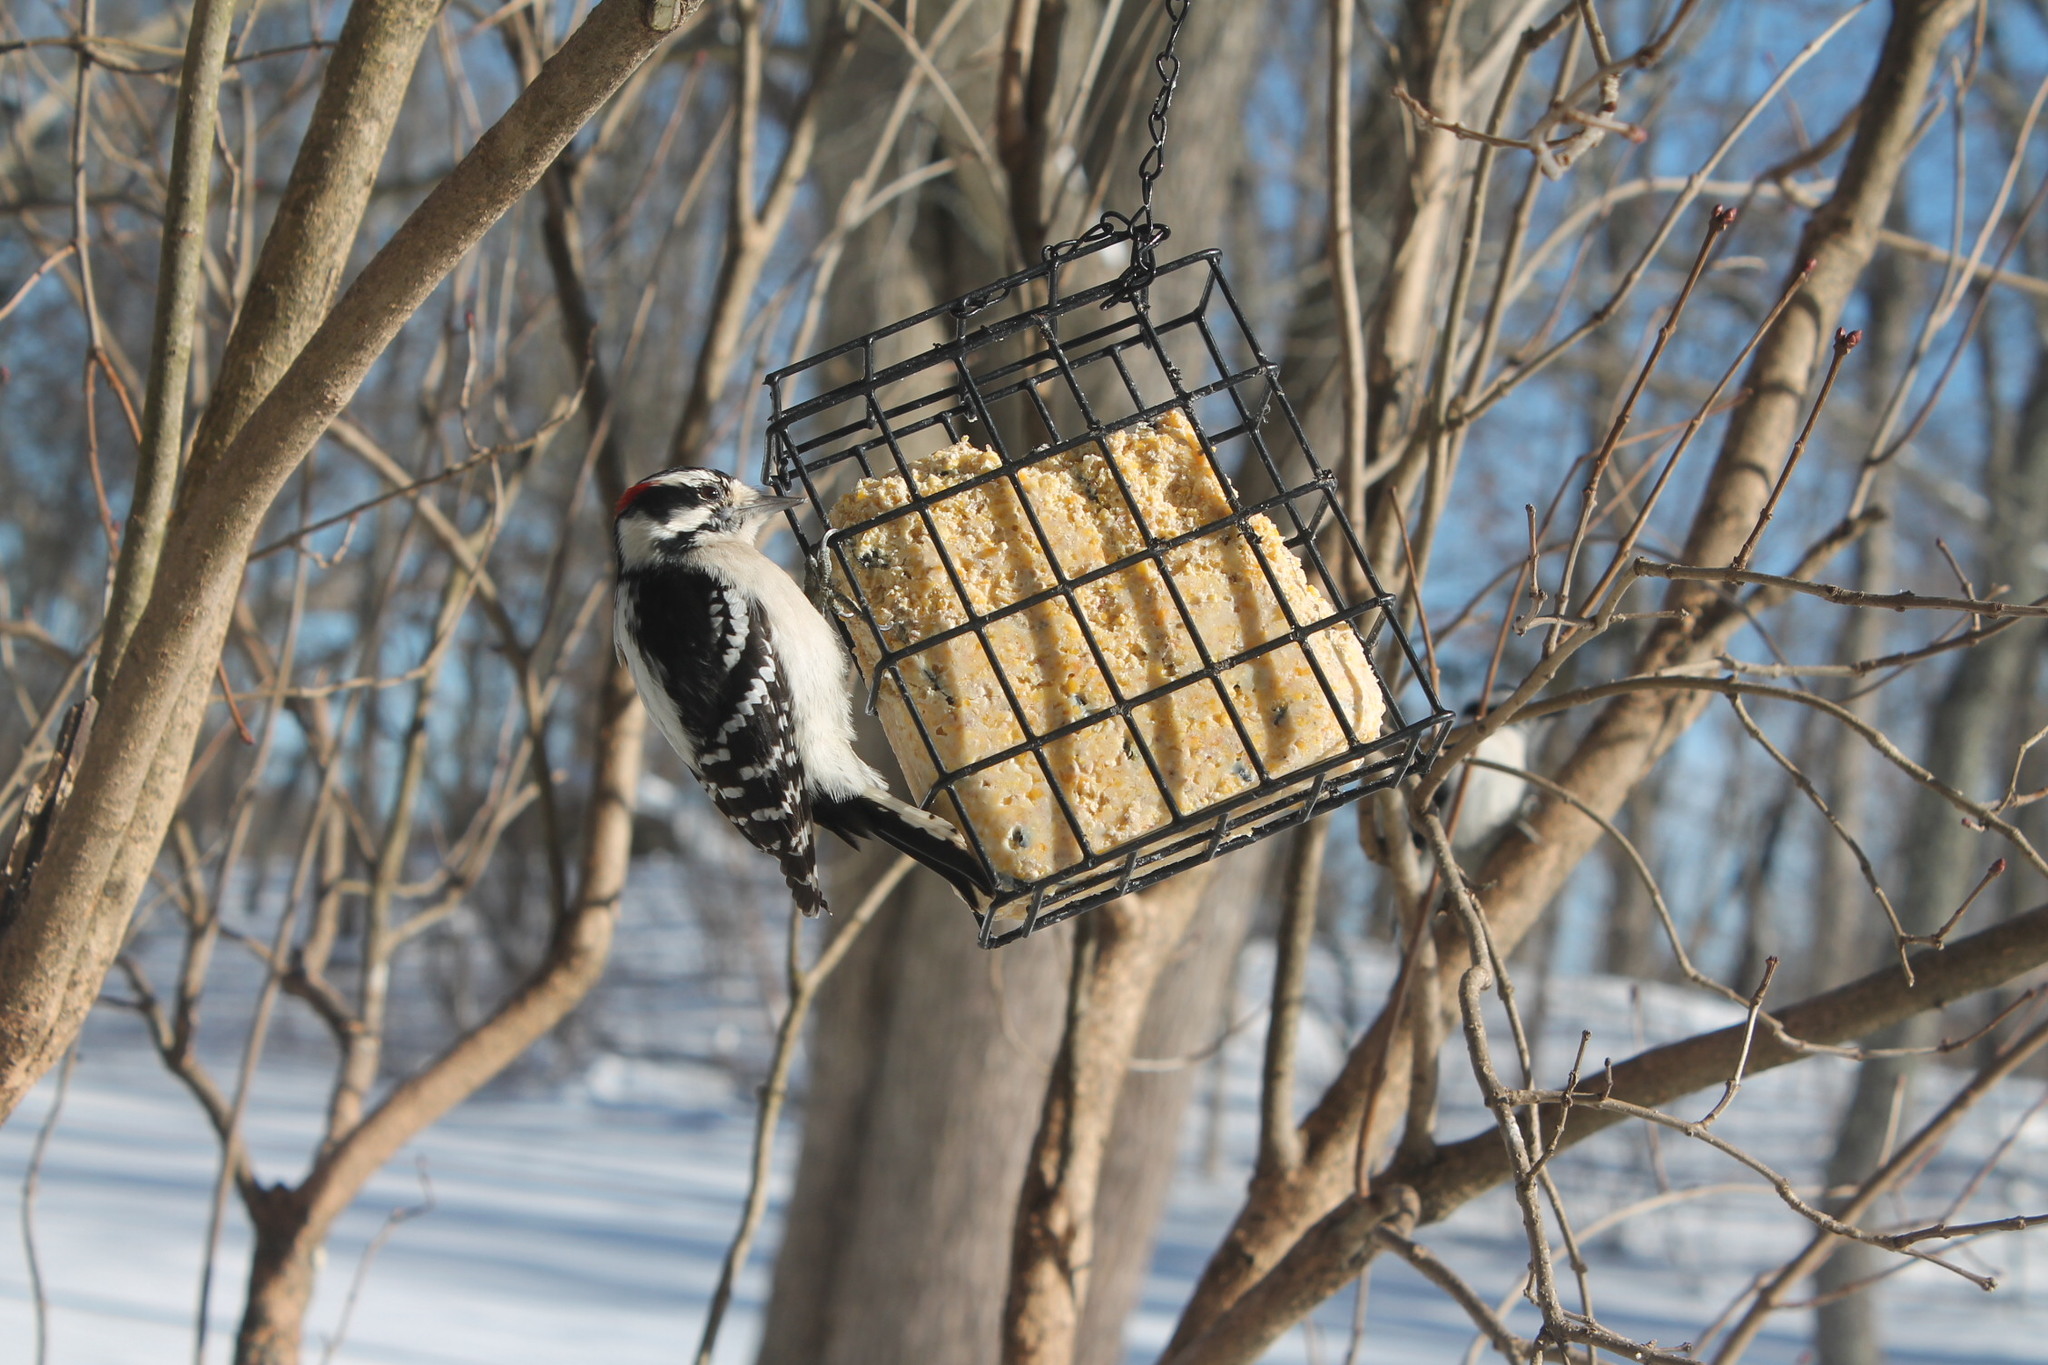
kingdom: Animalia
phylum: Chordata
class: Aves
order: Piciformes
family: Picidae
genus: Dryobates
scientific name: Dryobates pubescens
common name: Downy woodpecker
